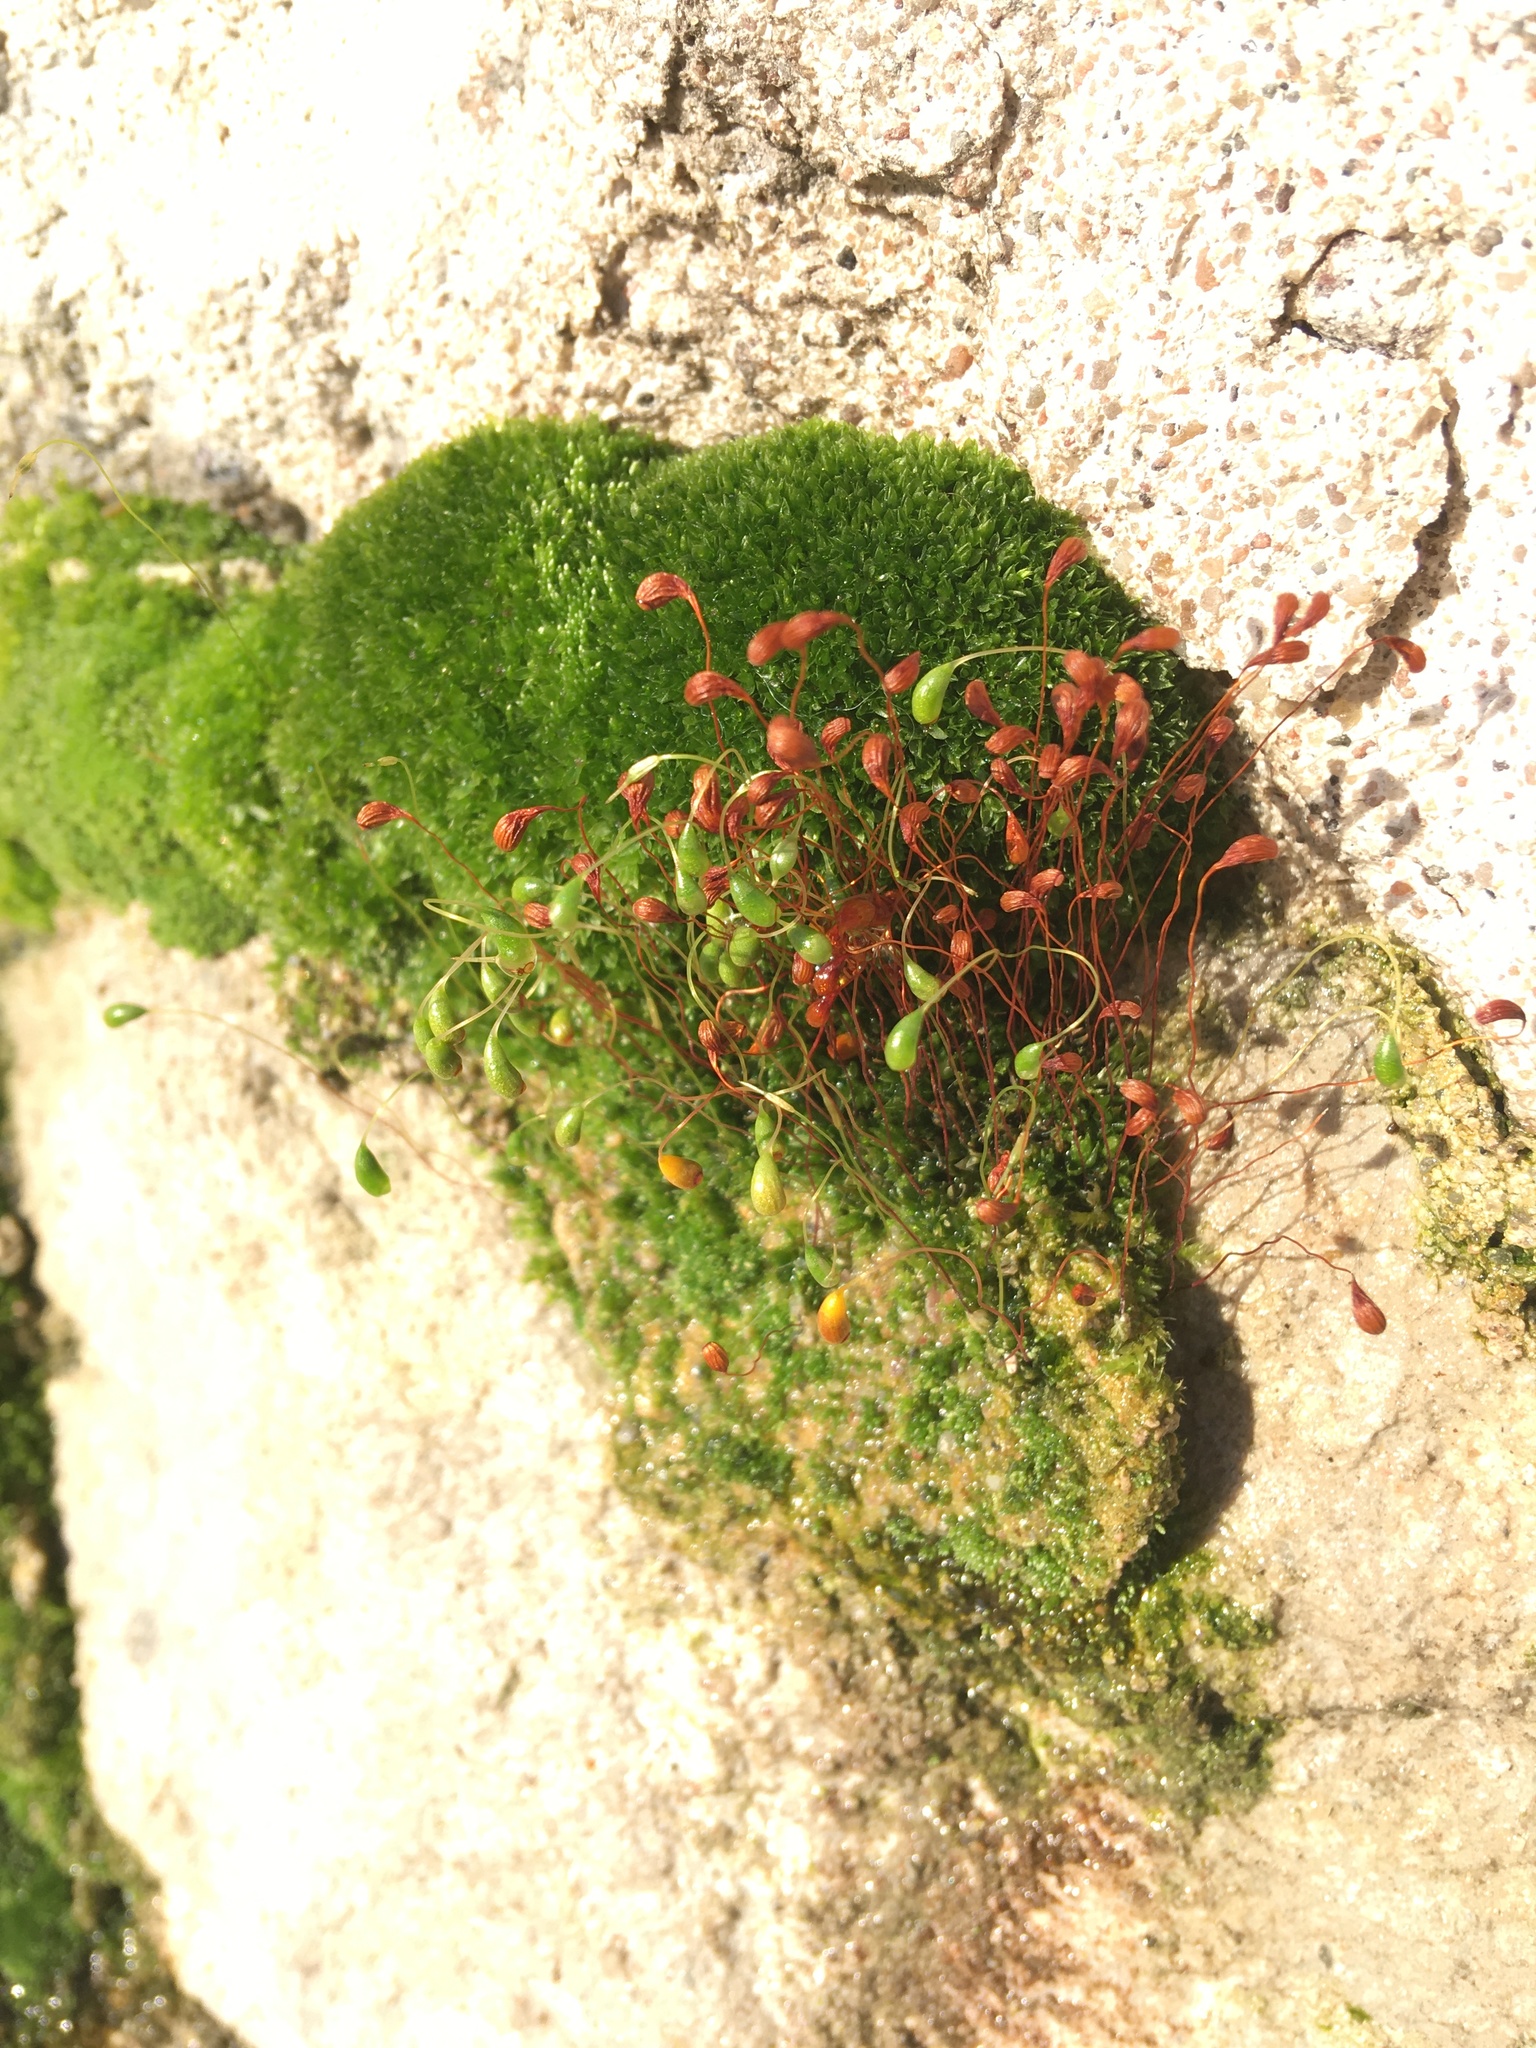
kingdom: Plantae
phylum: Bryophyta
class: Bryopsida
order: Funariales
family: Funariaceae
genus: Funaria
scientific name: Funaria hygrometrica
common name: Common cord moss
